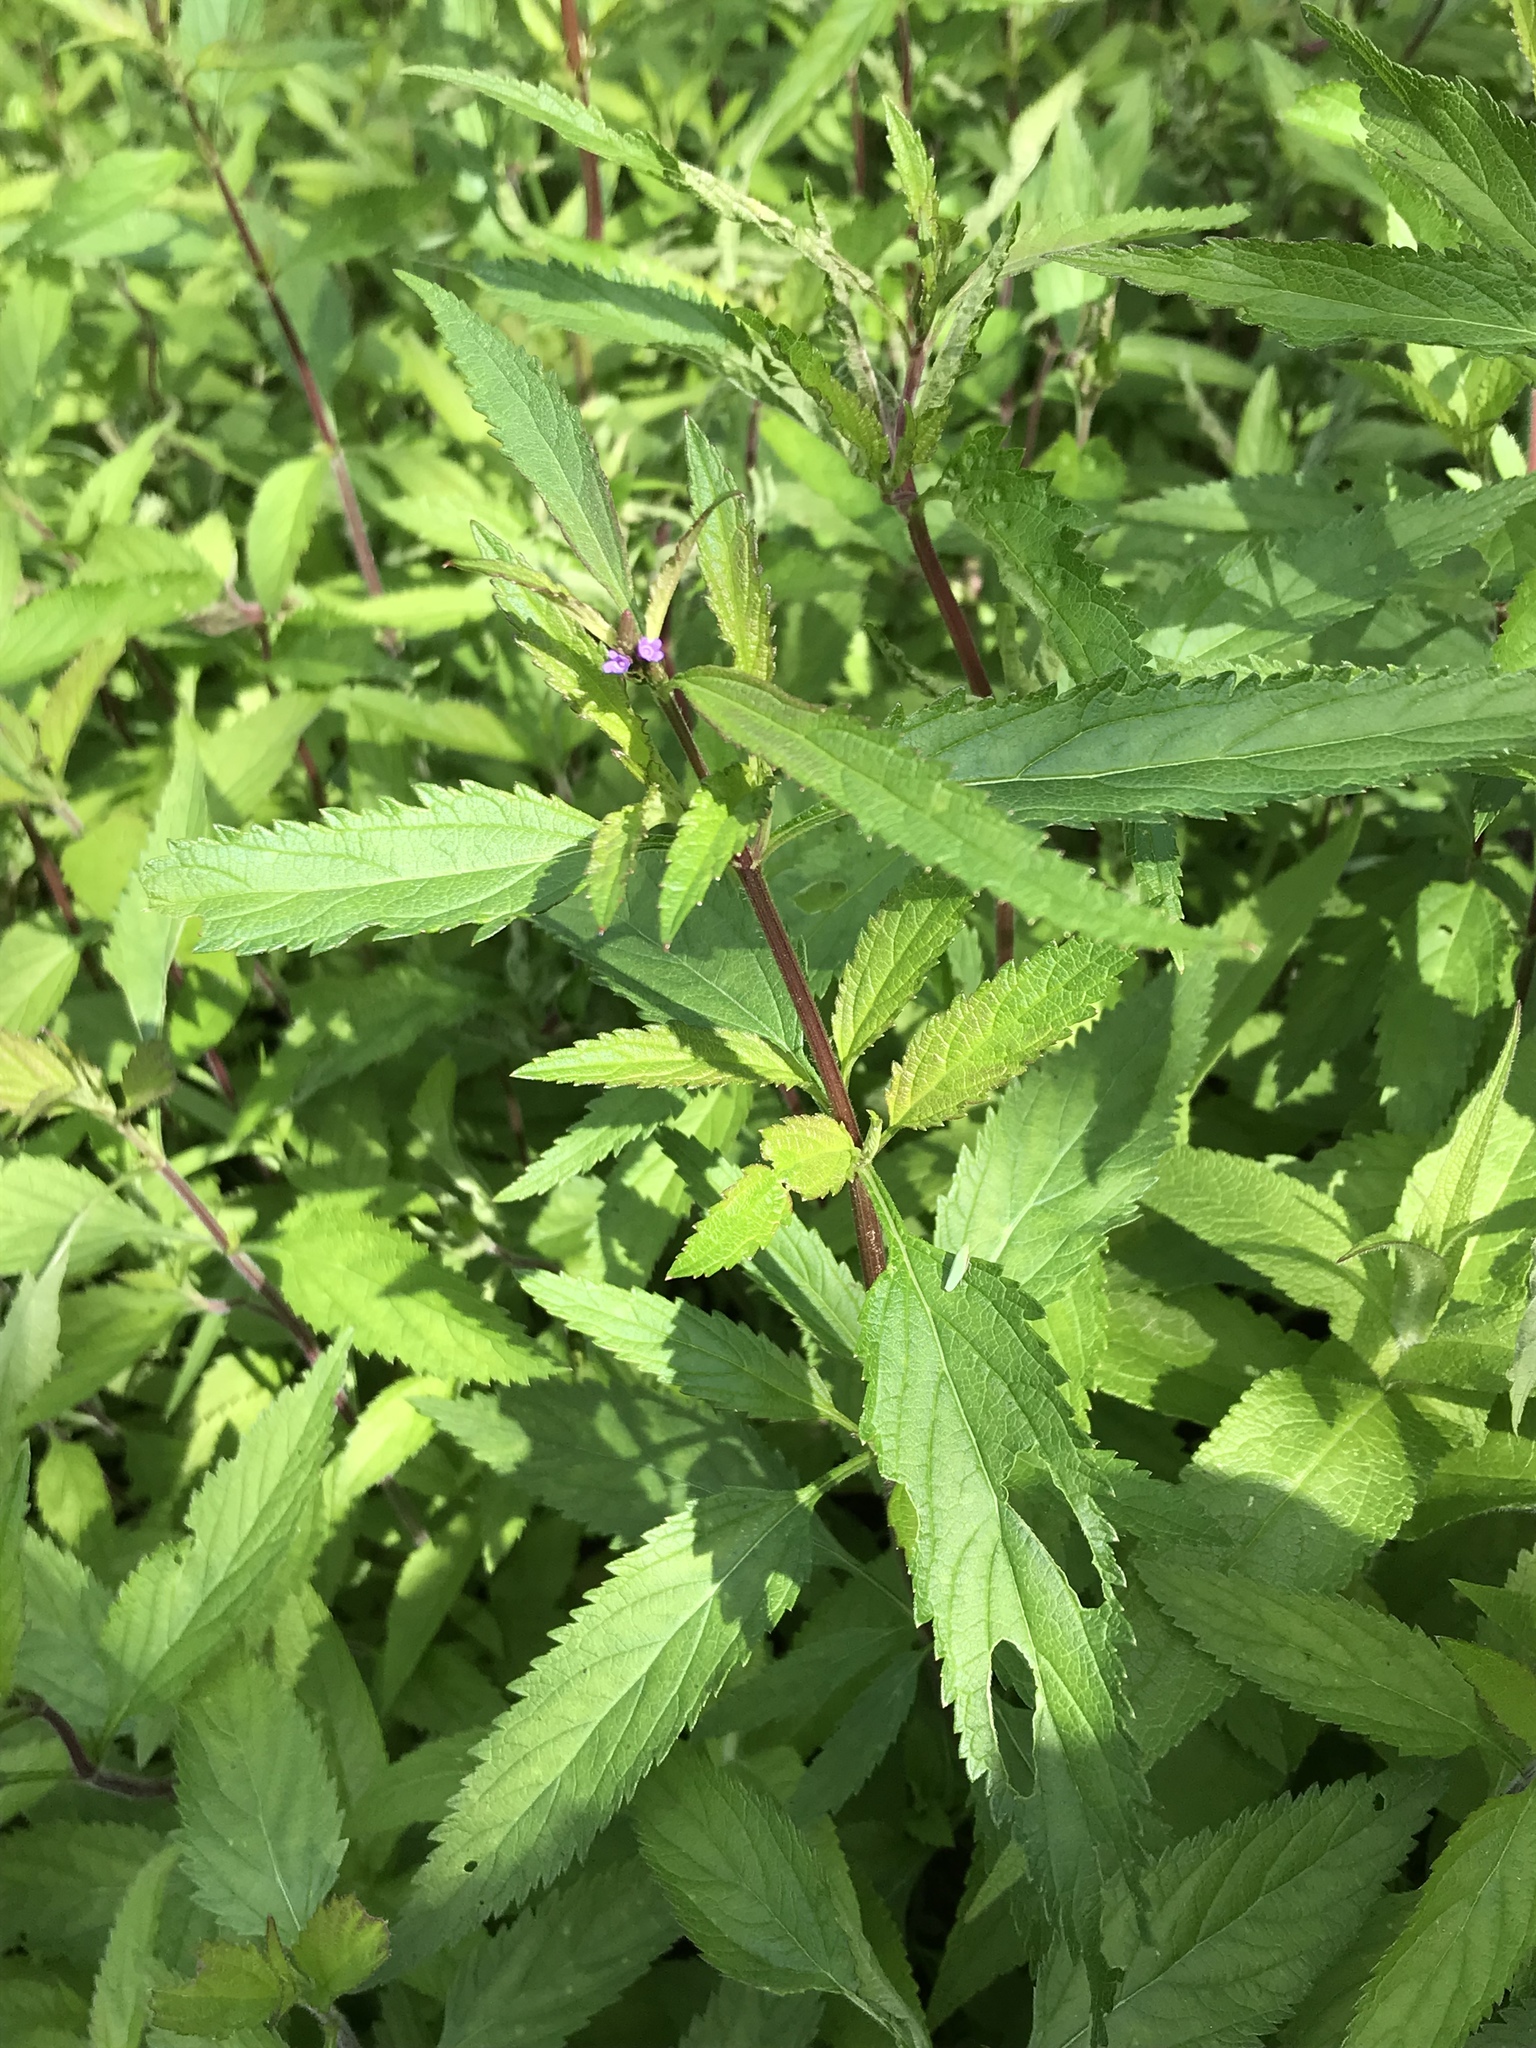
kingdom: Plantae
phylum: Tracheophyta
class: Magnoliopsida
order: Lamiales
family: Verbenaceae
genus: Verbena
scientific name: Verbena hastata
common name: American blue vervain
